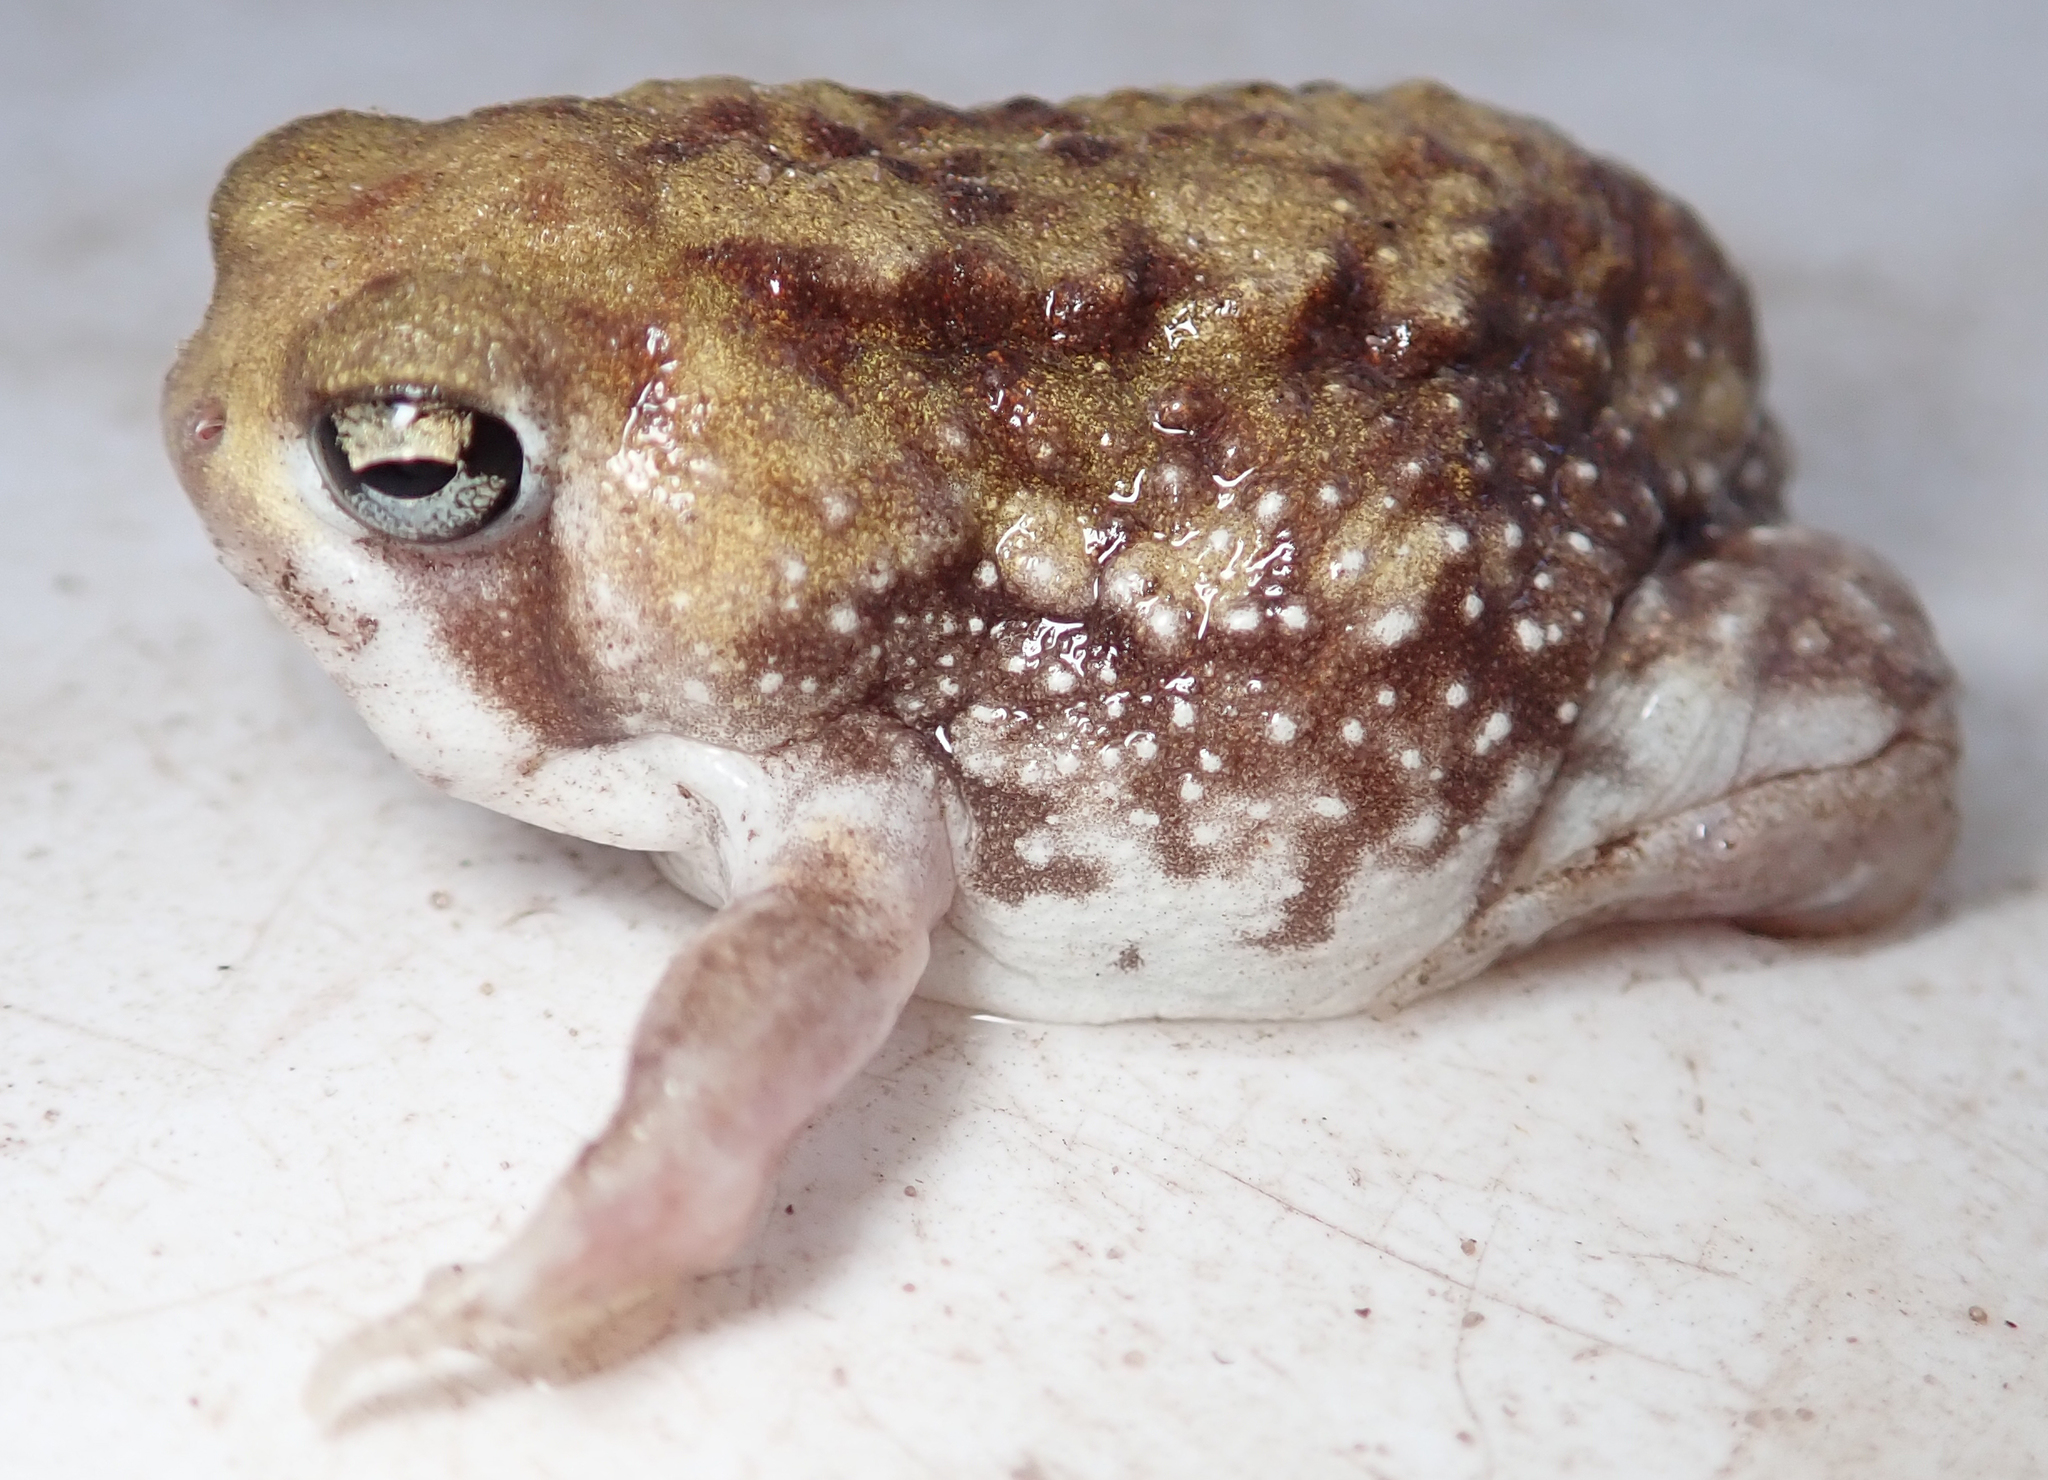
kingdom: Animalia
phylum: Chordata
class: Amphibia
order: Anura
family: Brevicipitidae
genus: Breviceps
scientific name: Breviceps adspersus
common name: Common rain frog
